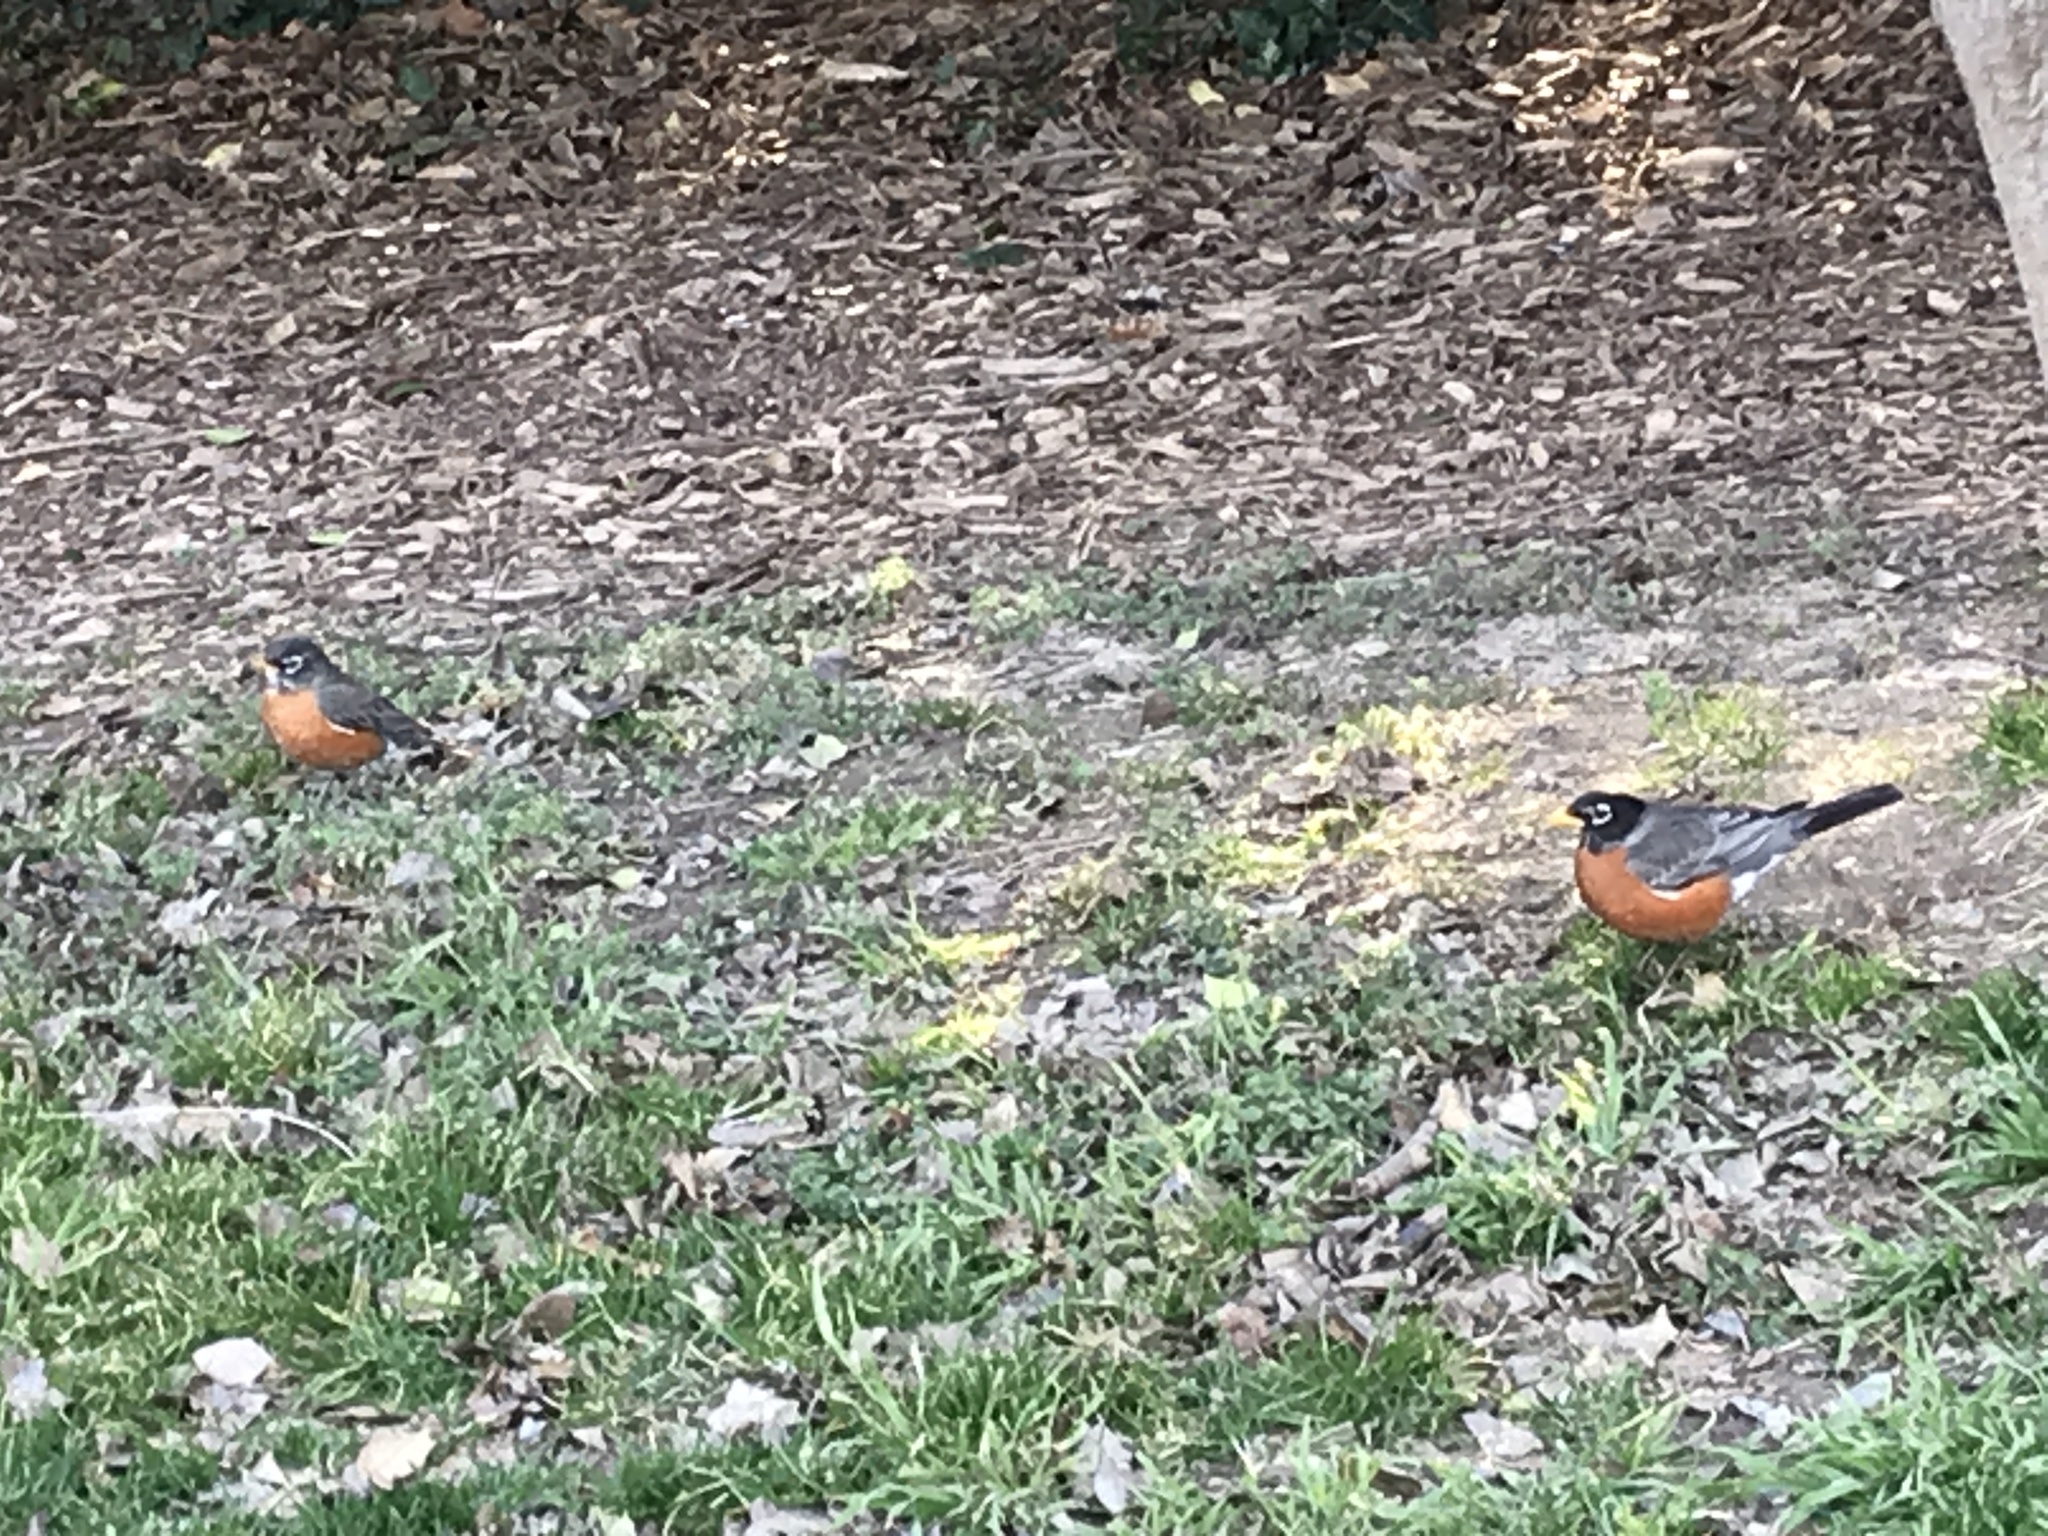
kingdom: Animalia
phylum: Chordata
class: Aves
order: Passeriformes
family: Turdidae
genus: Turdus
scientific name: Turdus migratorius
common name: American robin
